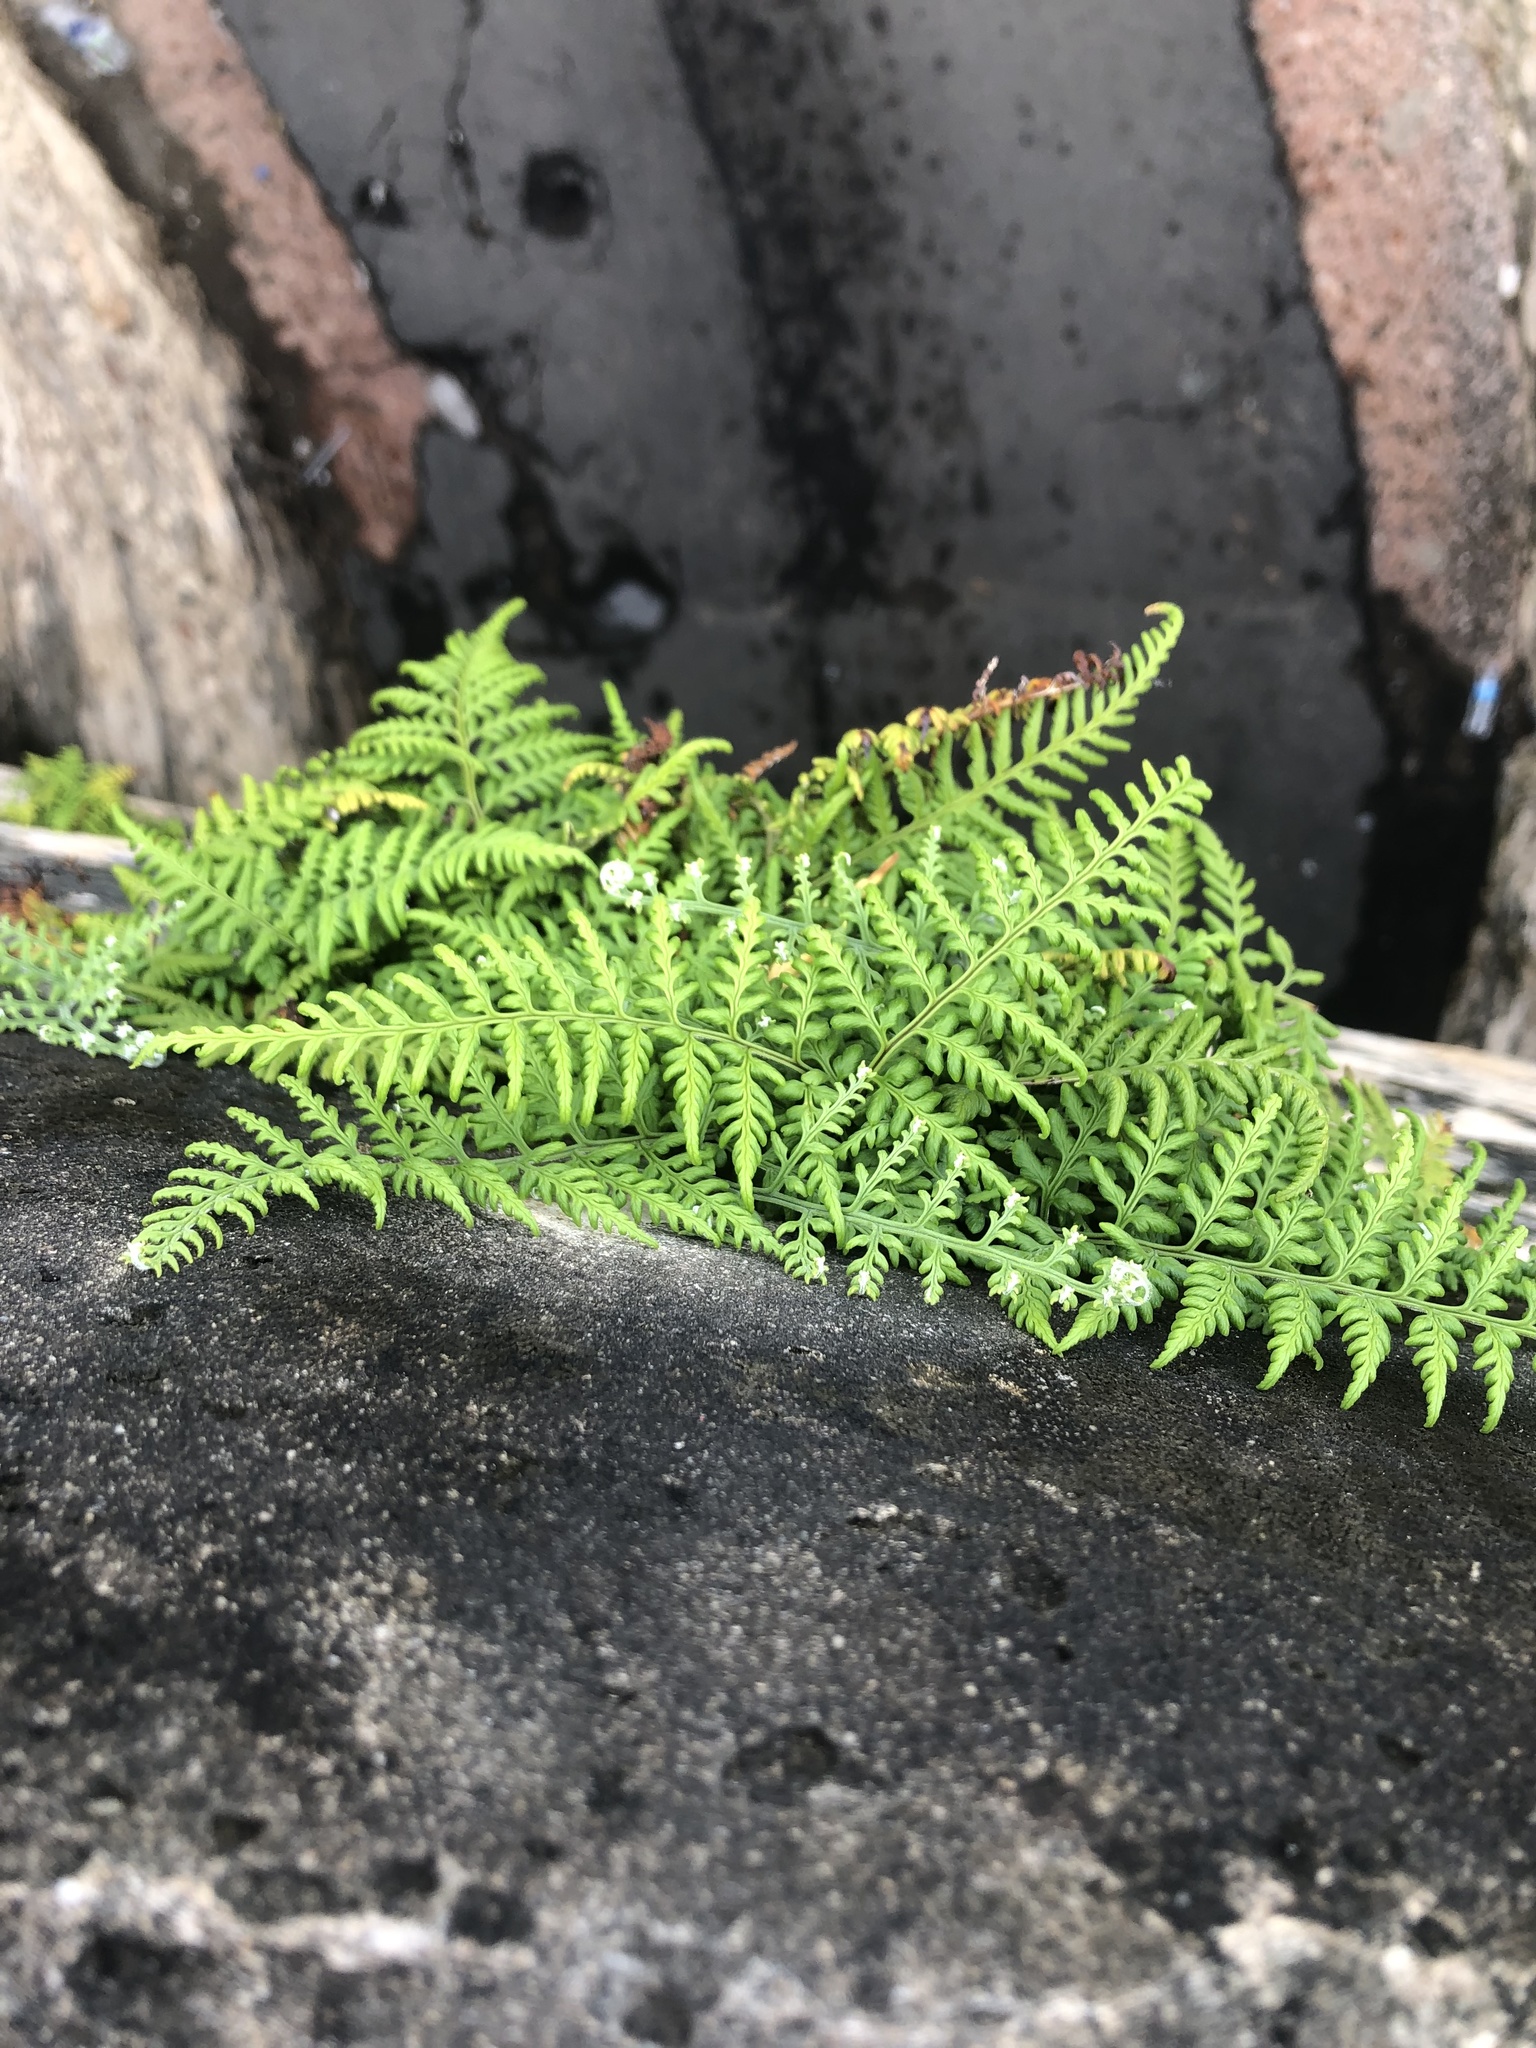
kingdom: Plantae
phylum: Tracheophyta
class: Polypodiopsida
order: Polypodiales
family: Pteridaceae
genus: Pityrogramma
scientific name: Pityrogramma calomelanos
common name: Dixie silverback fern
